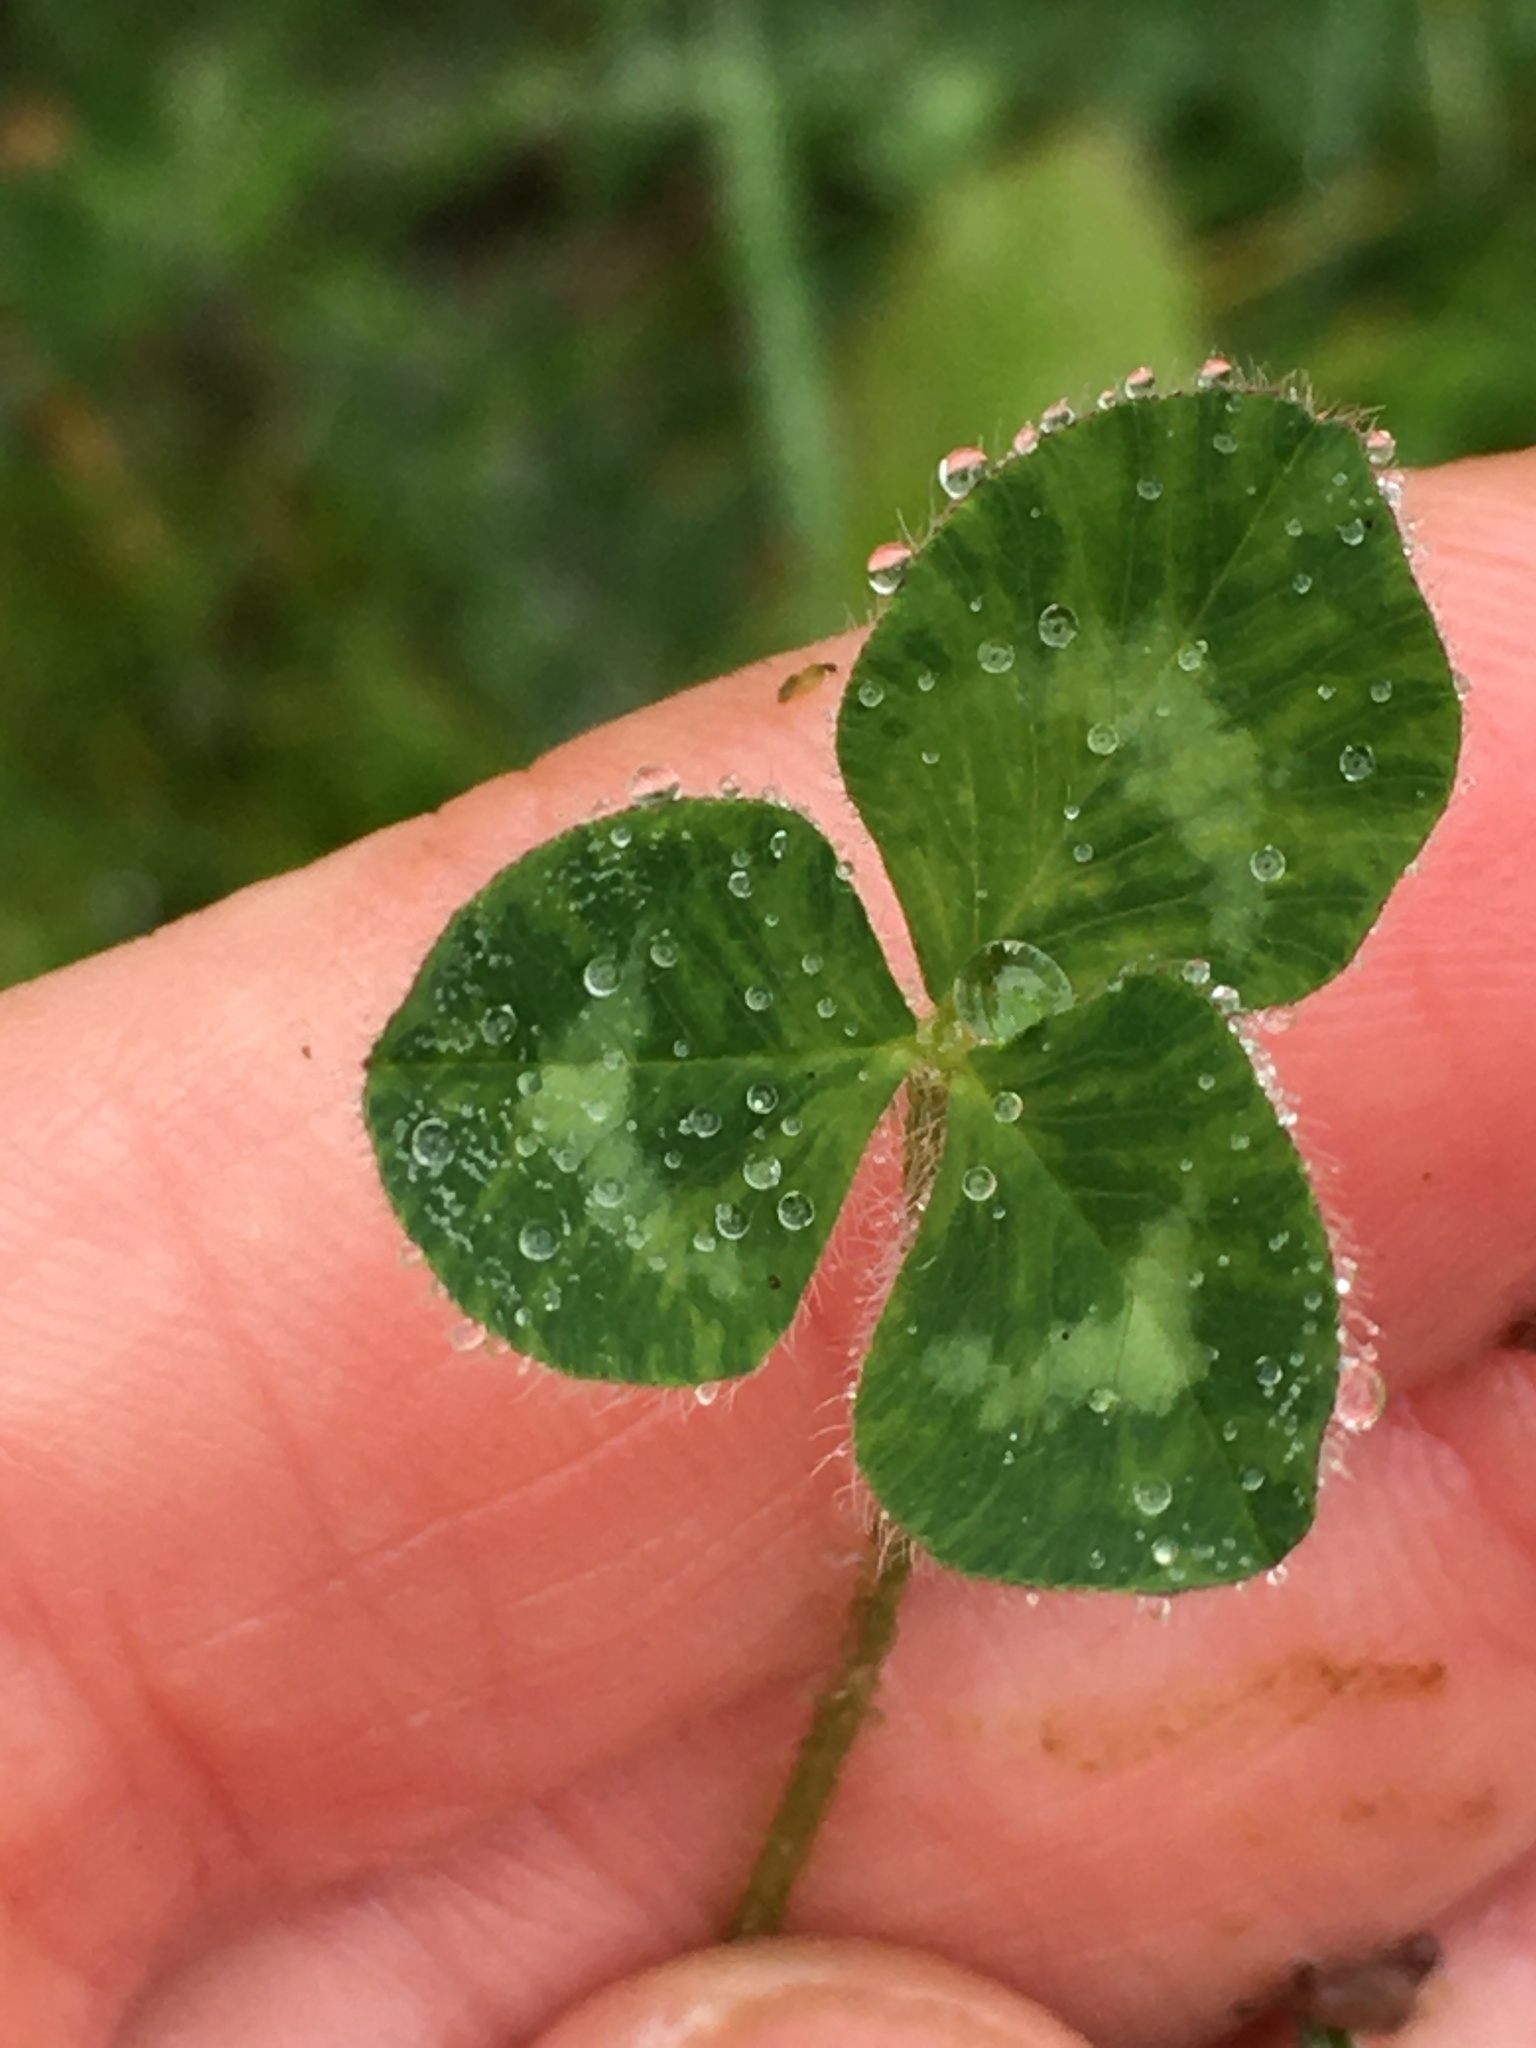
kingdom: Plantae
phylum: Tracheophyta
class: Magnoliopsida
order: Fabales
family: Fabaceae
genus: Trifolium
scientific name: Trifolium pratense
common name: Red clover
